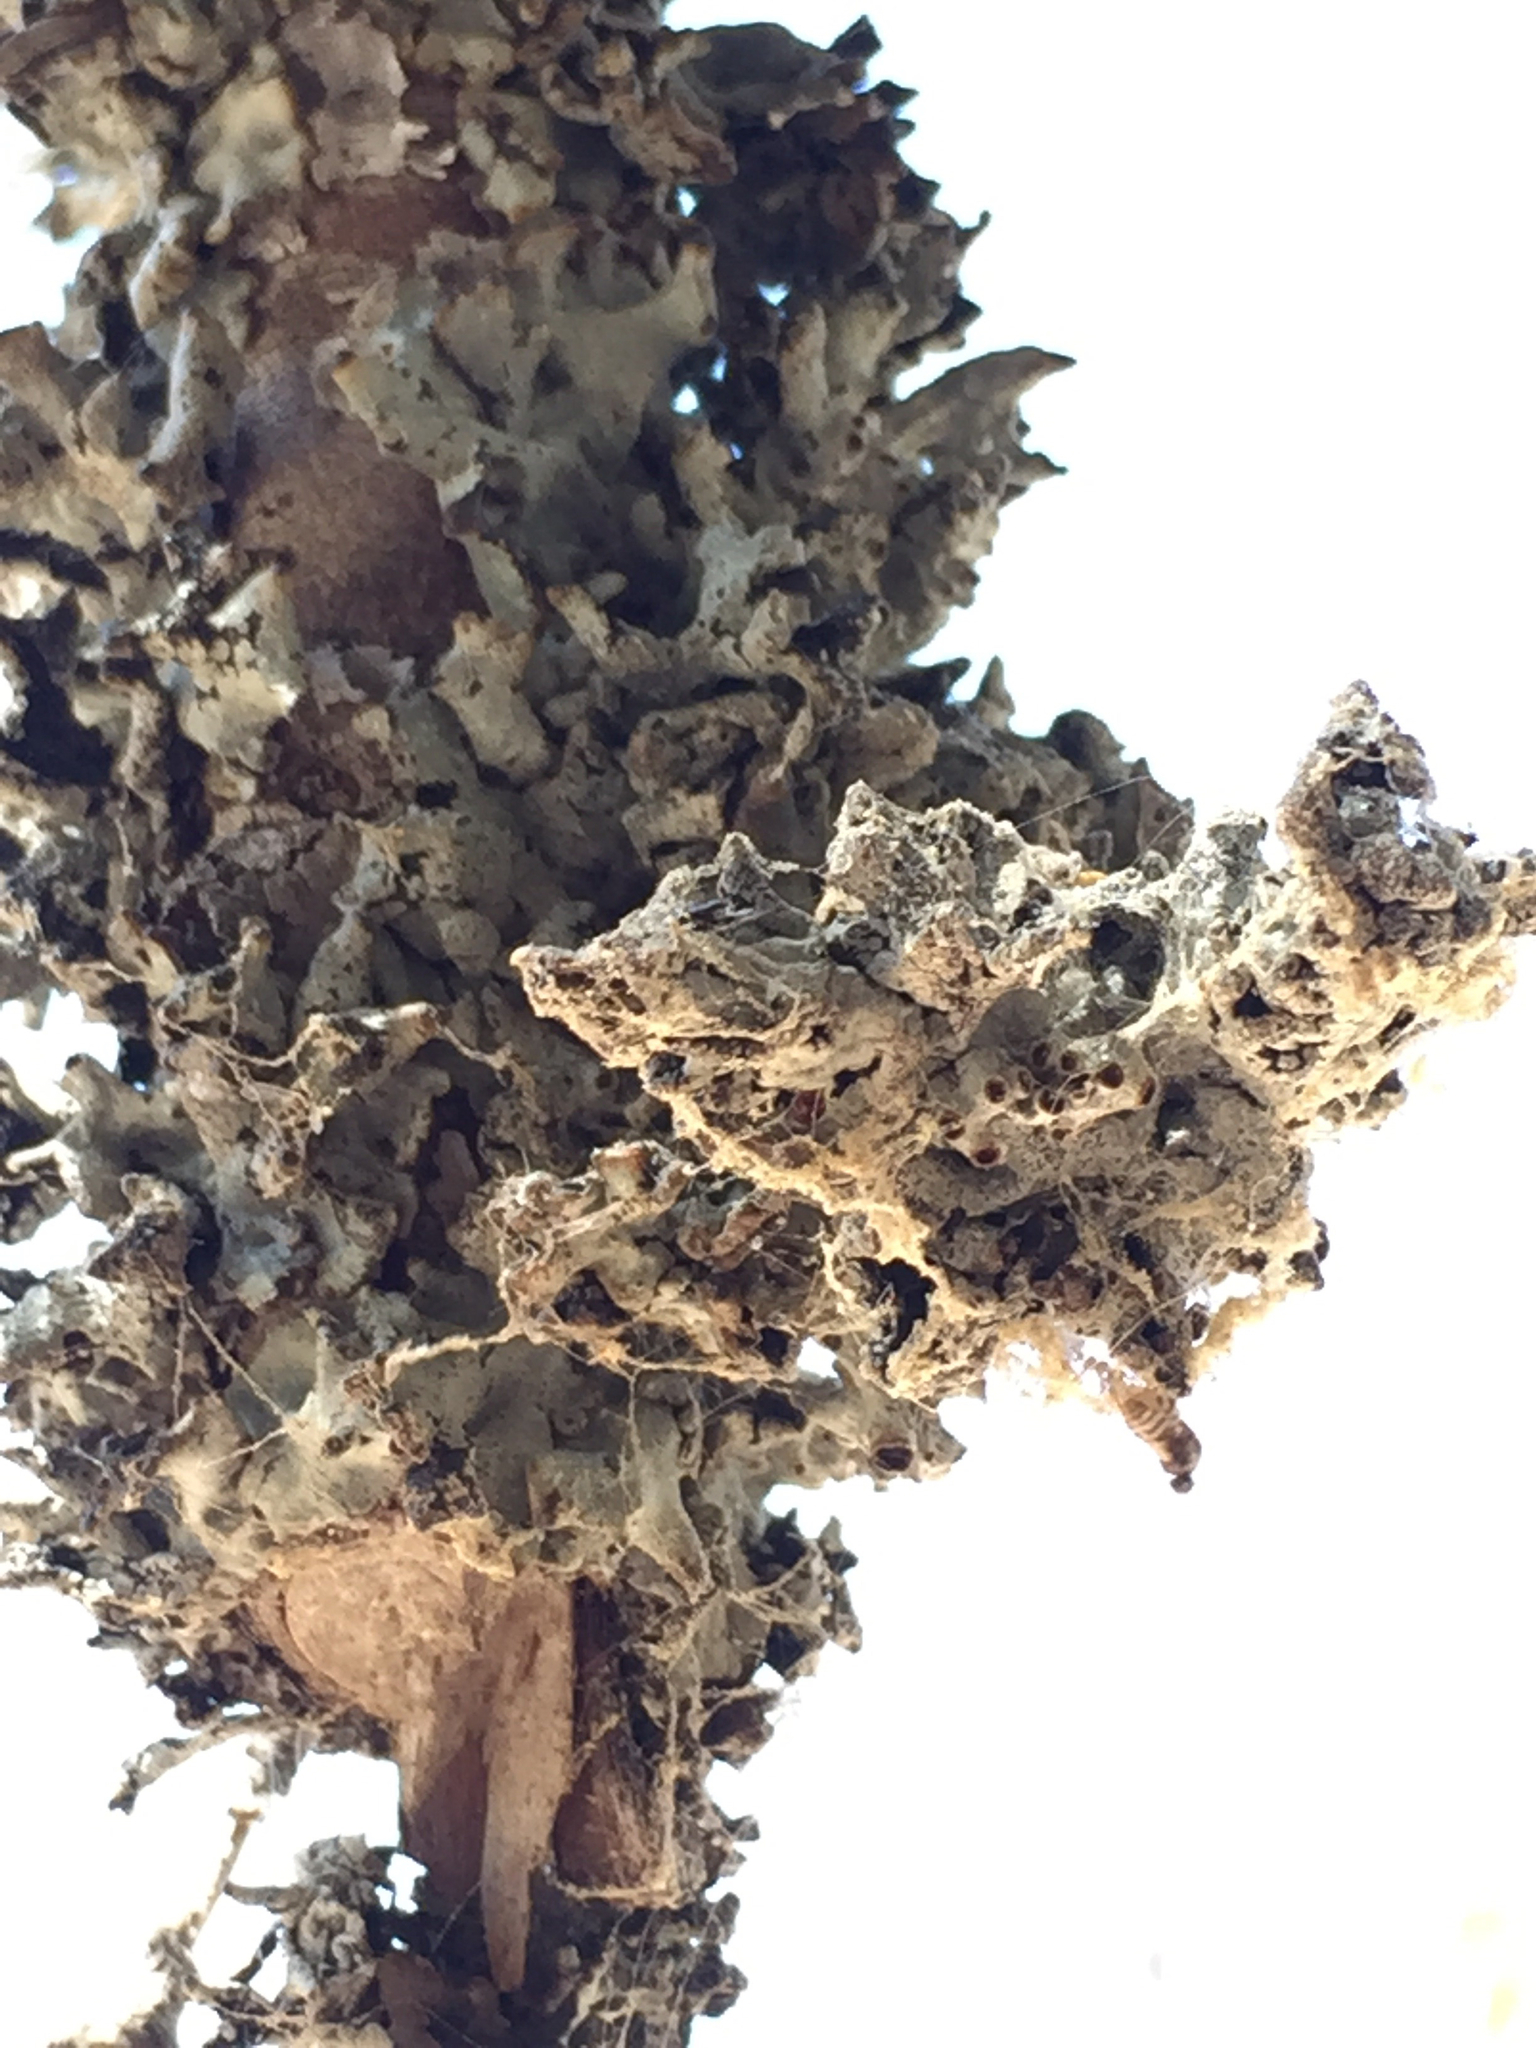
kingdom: Fungi
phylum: Ascomycota
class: Lecanoromycetes
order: Lecanorales
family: Parmeliaceae
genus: Hypogymnia
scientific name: Hypogymnia imshaugii
